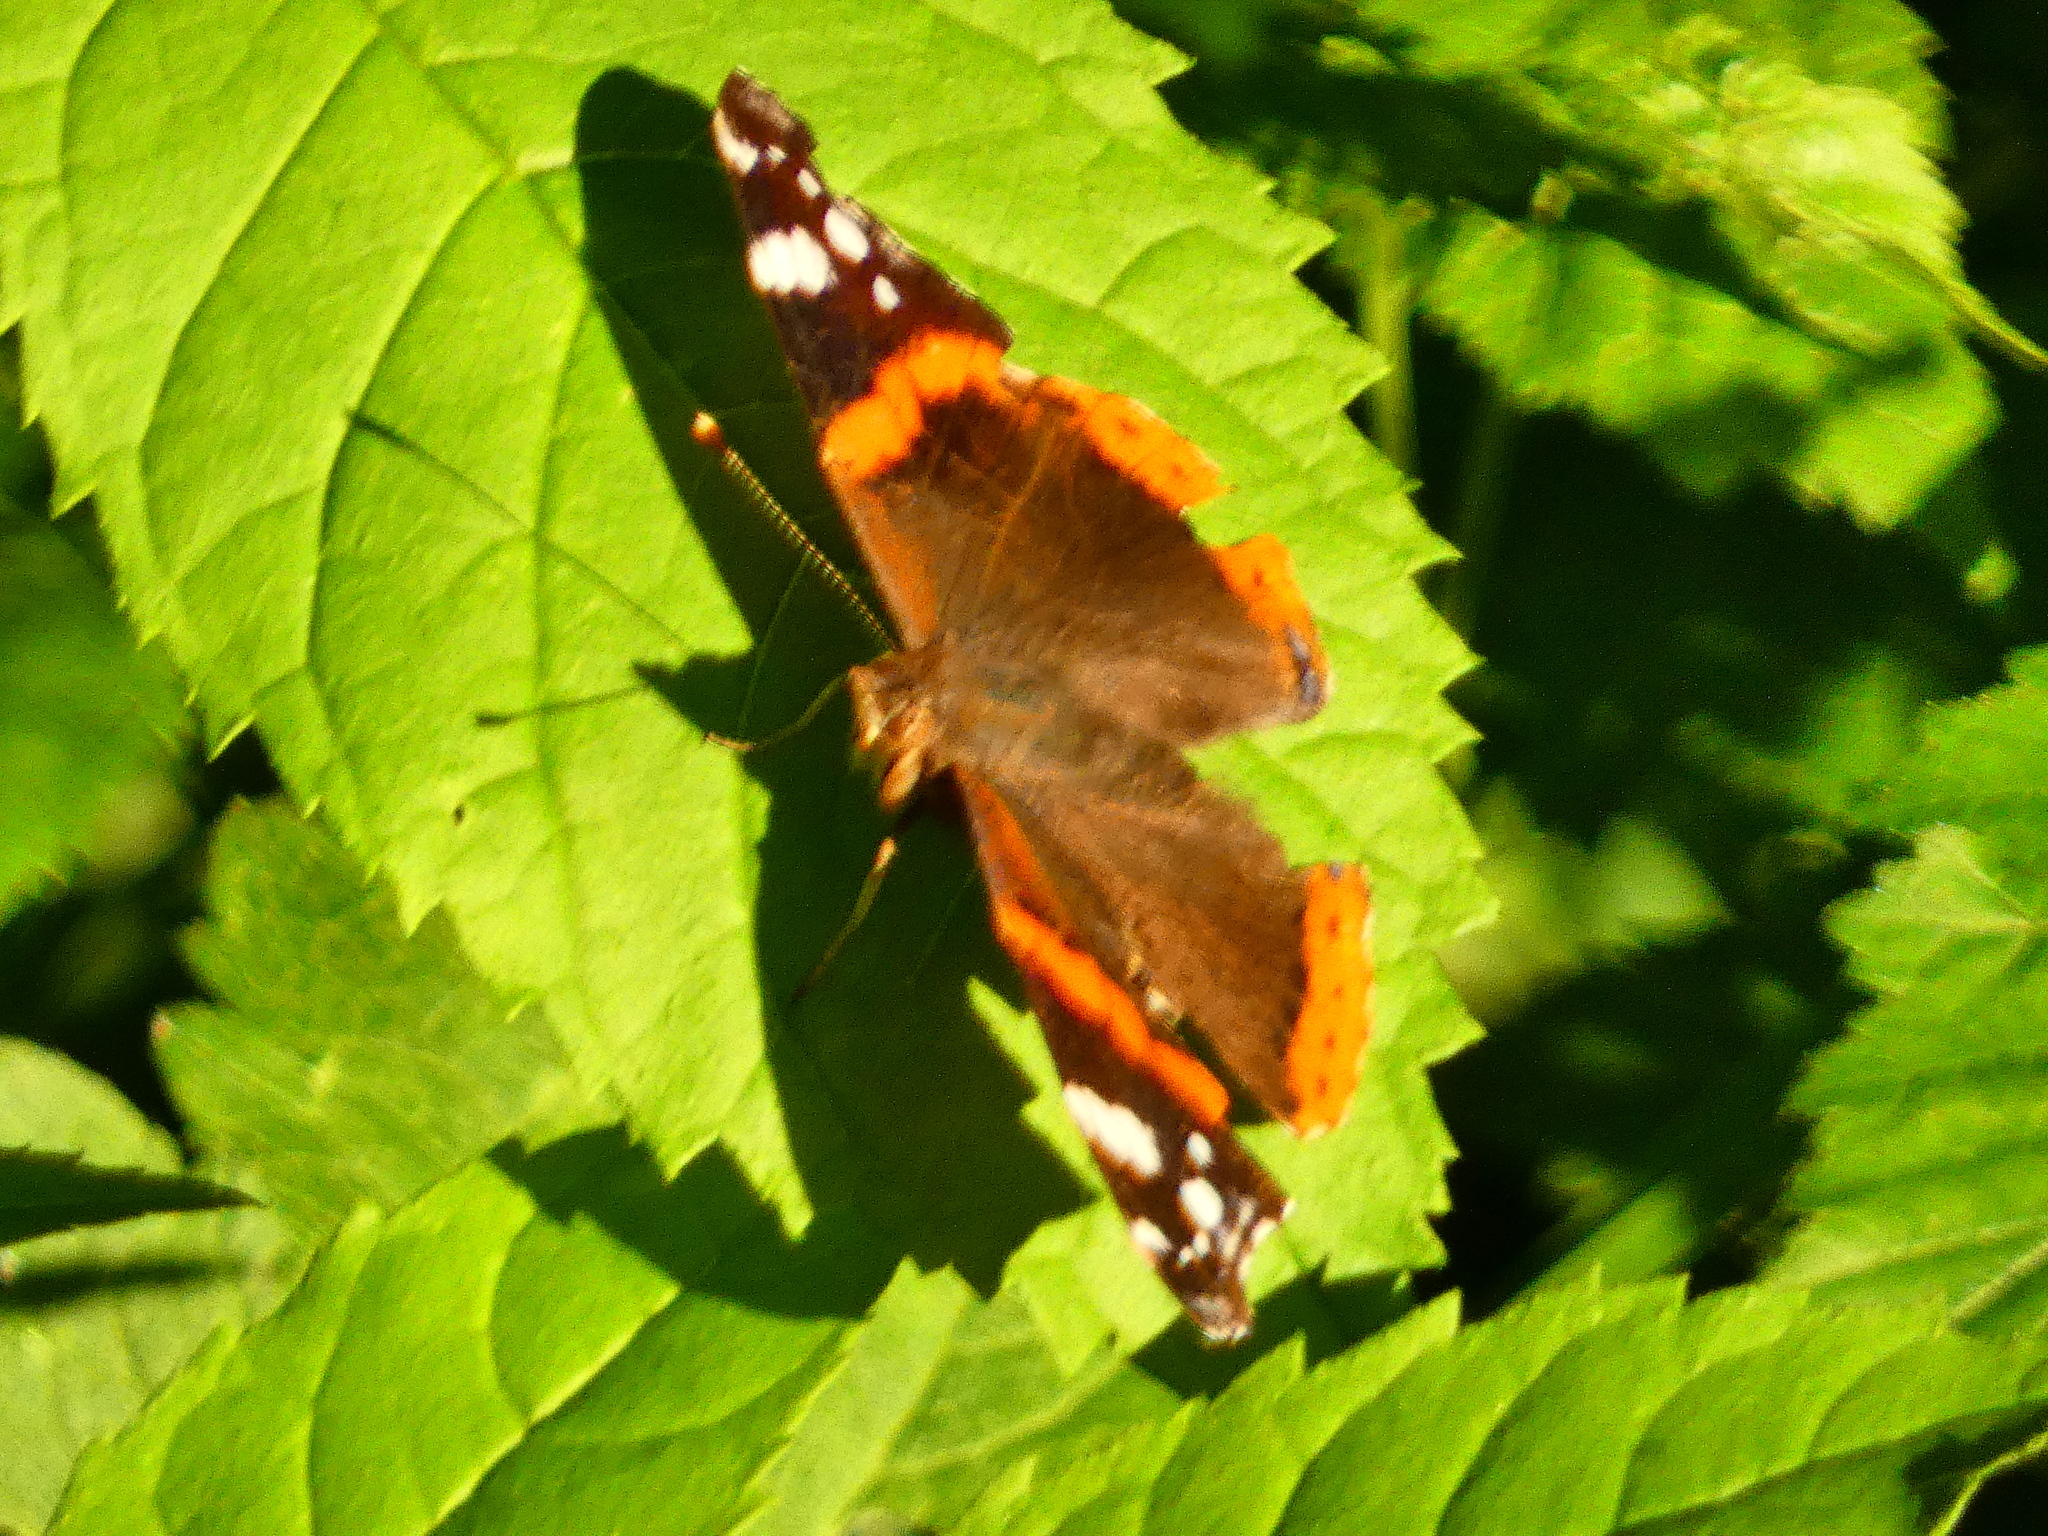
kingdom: Animalia
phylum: Arthropoda
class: Insecta
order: Lepidoptera
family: Nymphalidae
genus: Vanessa
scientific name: Vanessa atalanta
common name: Red admiral
